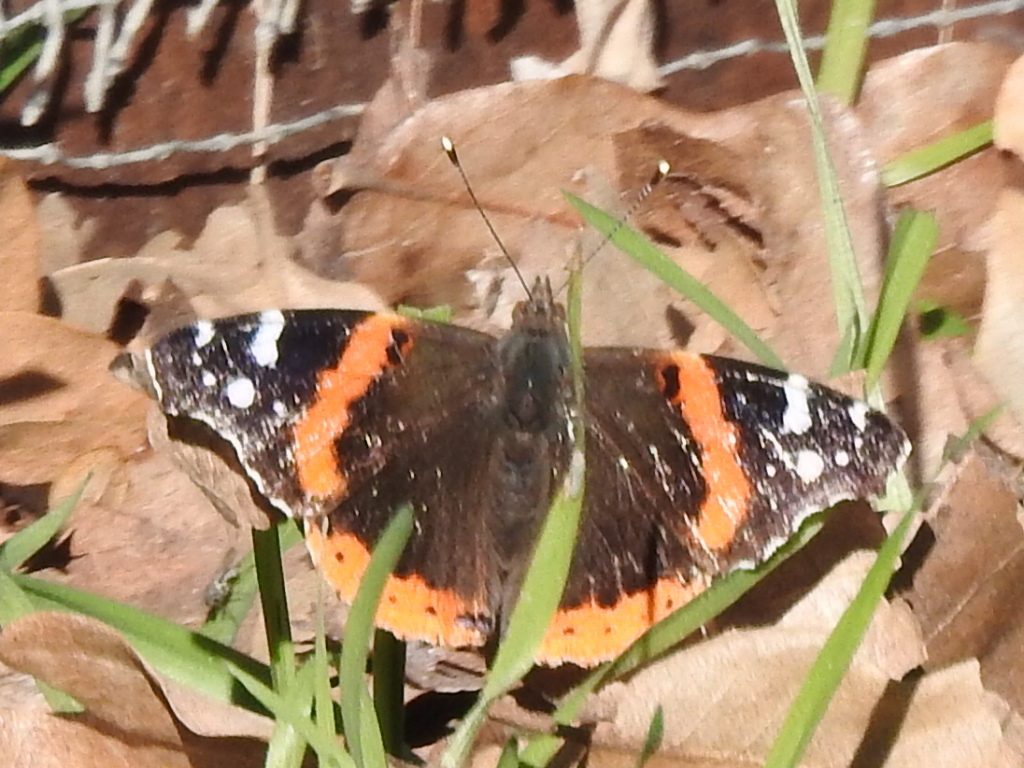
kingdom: Animalia
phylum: Arthropoda
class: Insecta
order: Lepidoptera
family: Nymphalidae
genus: Vanessa
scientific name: Vanessa atalanta
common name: Red admiral
